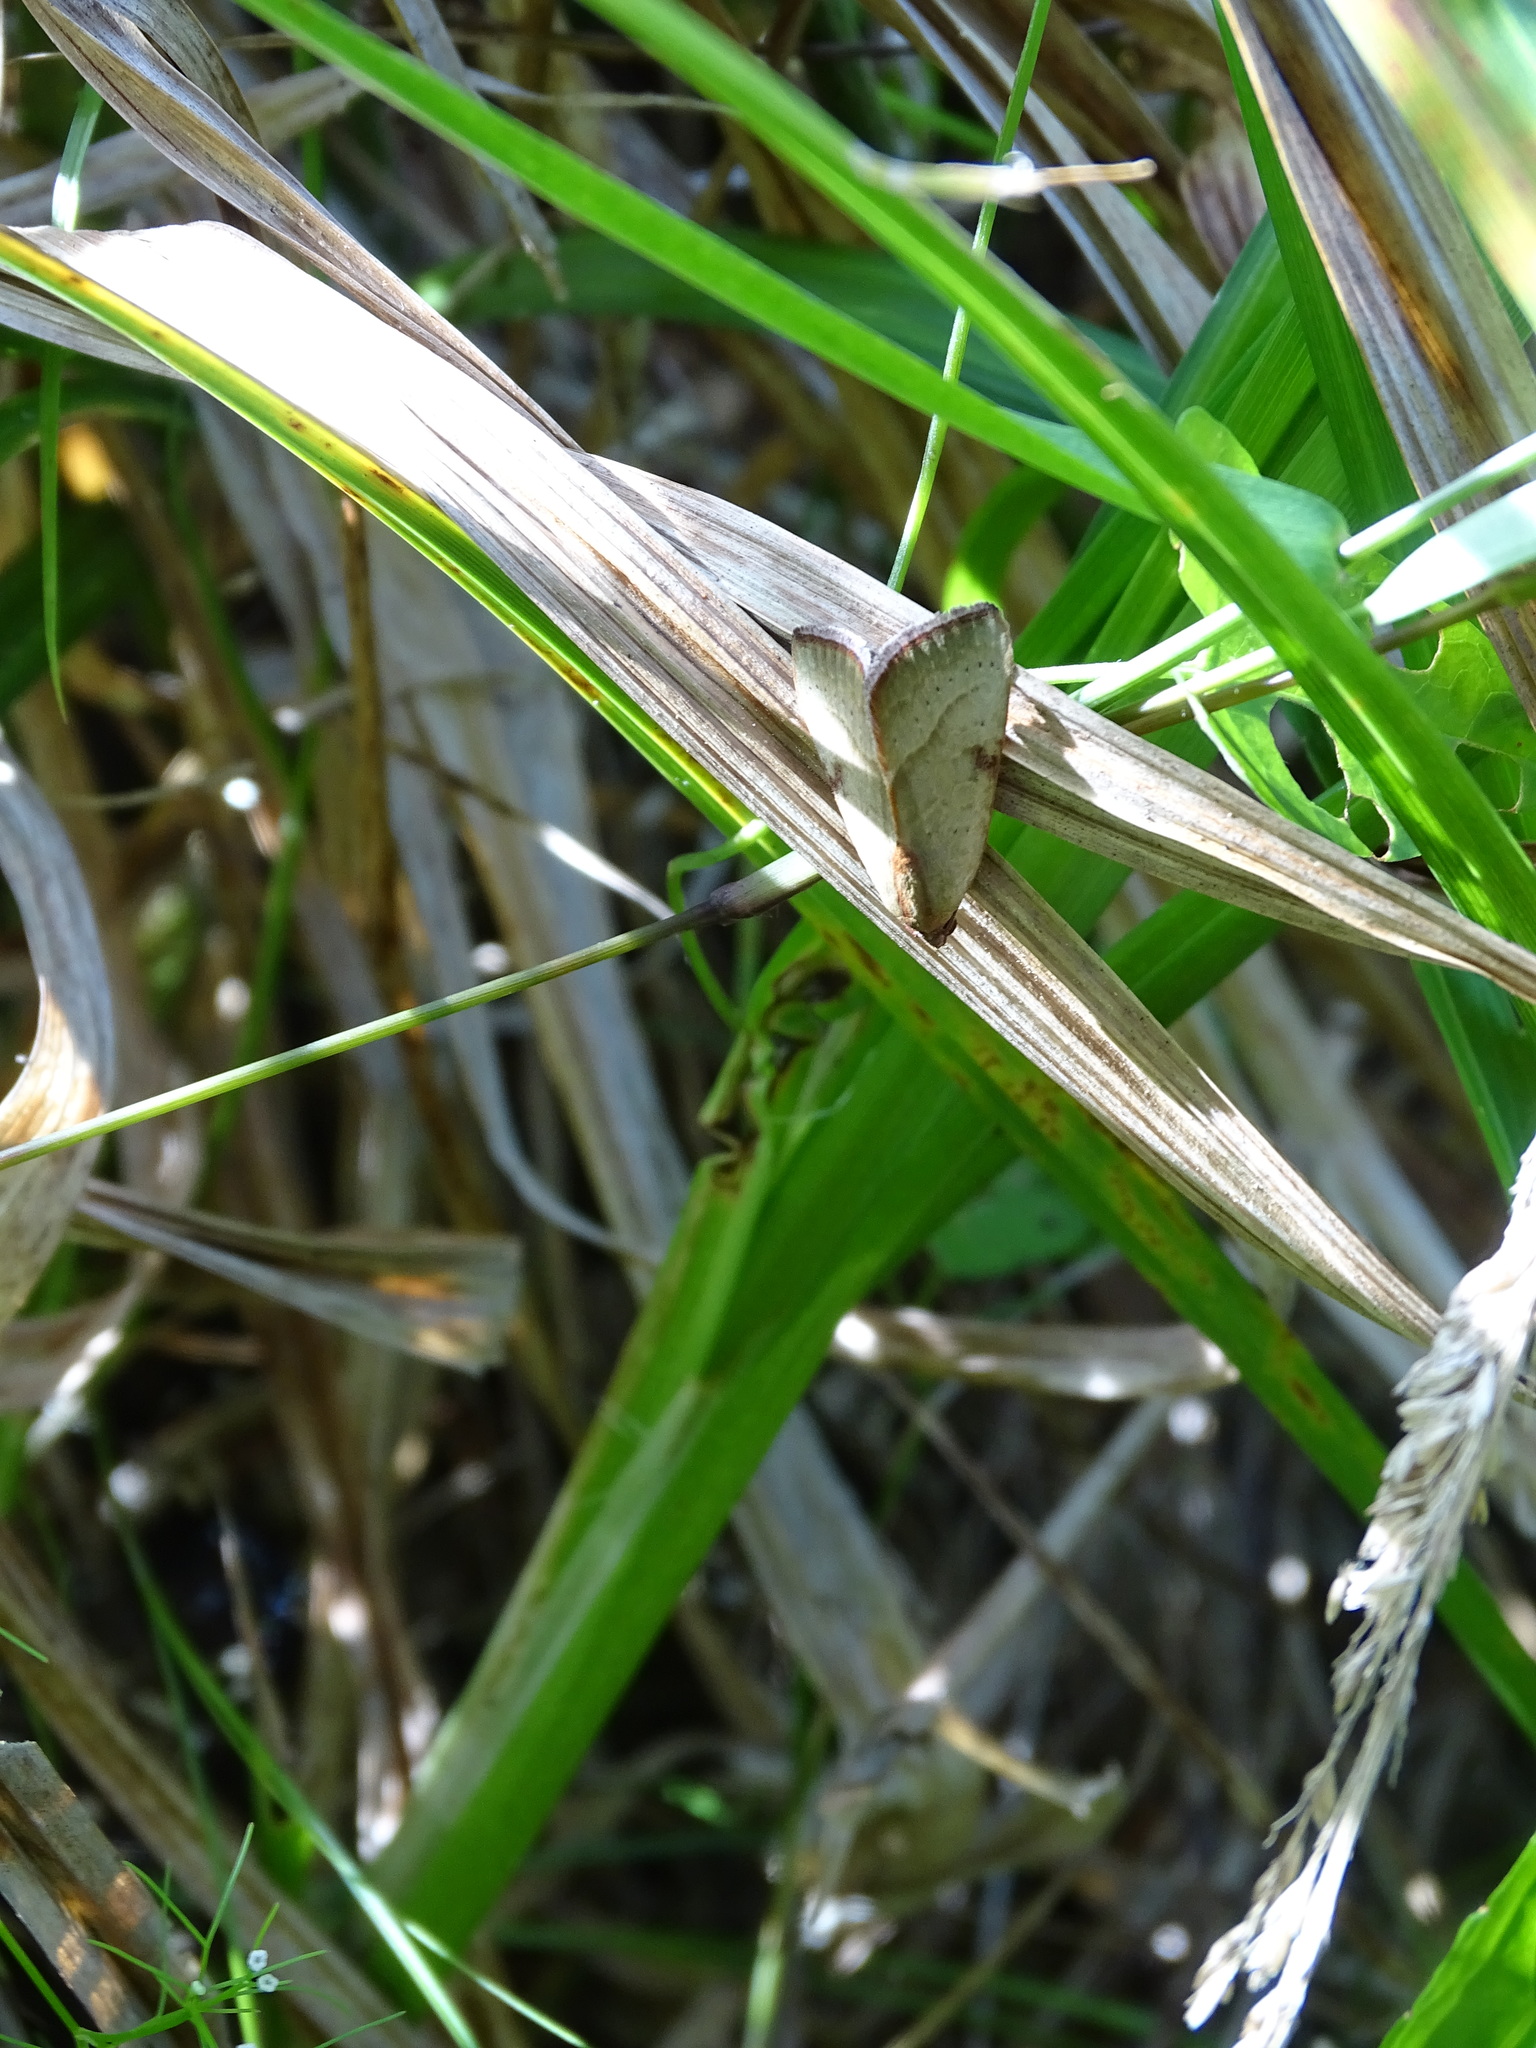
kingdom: Animalia
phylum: Arthropoda
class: Insecta
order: Lepidoptera
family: Noctuidae
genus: Galgula
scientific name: Galgula partita
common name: Wedgeling
